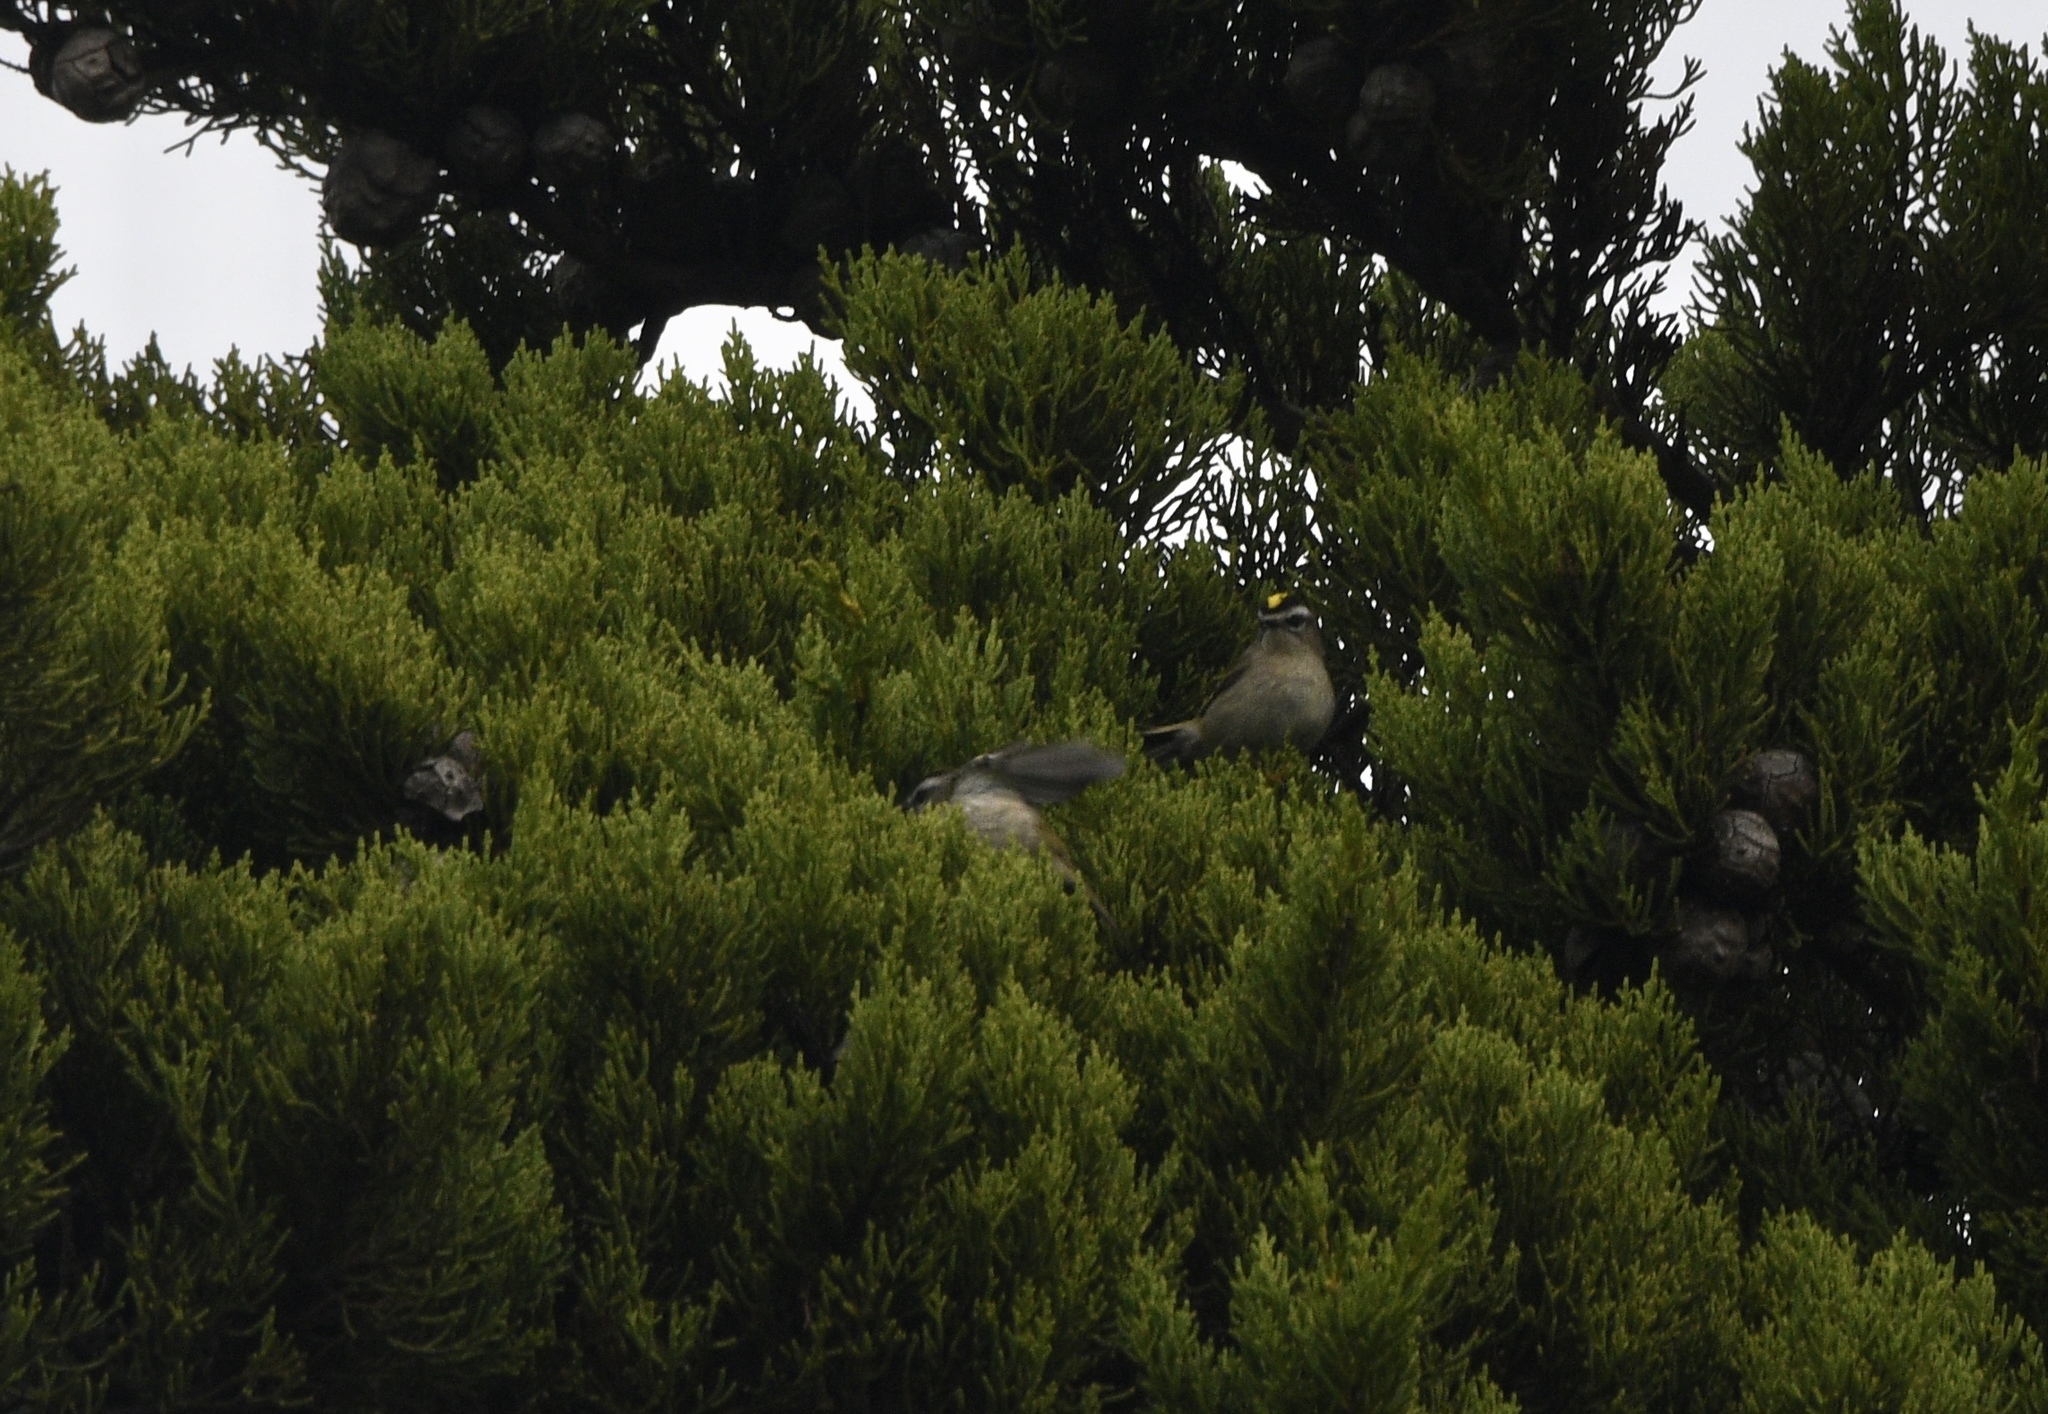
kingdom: Animalia
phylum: Chordata
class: Aves
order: Passeriformes
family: Regulidae
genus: Regulus
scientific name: Regulus satrapa
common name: Golden-crowned kinglet
